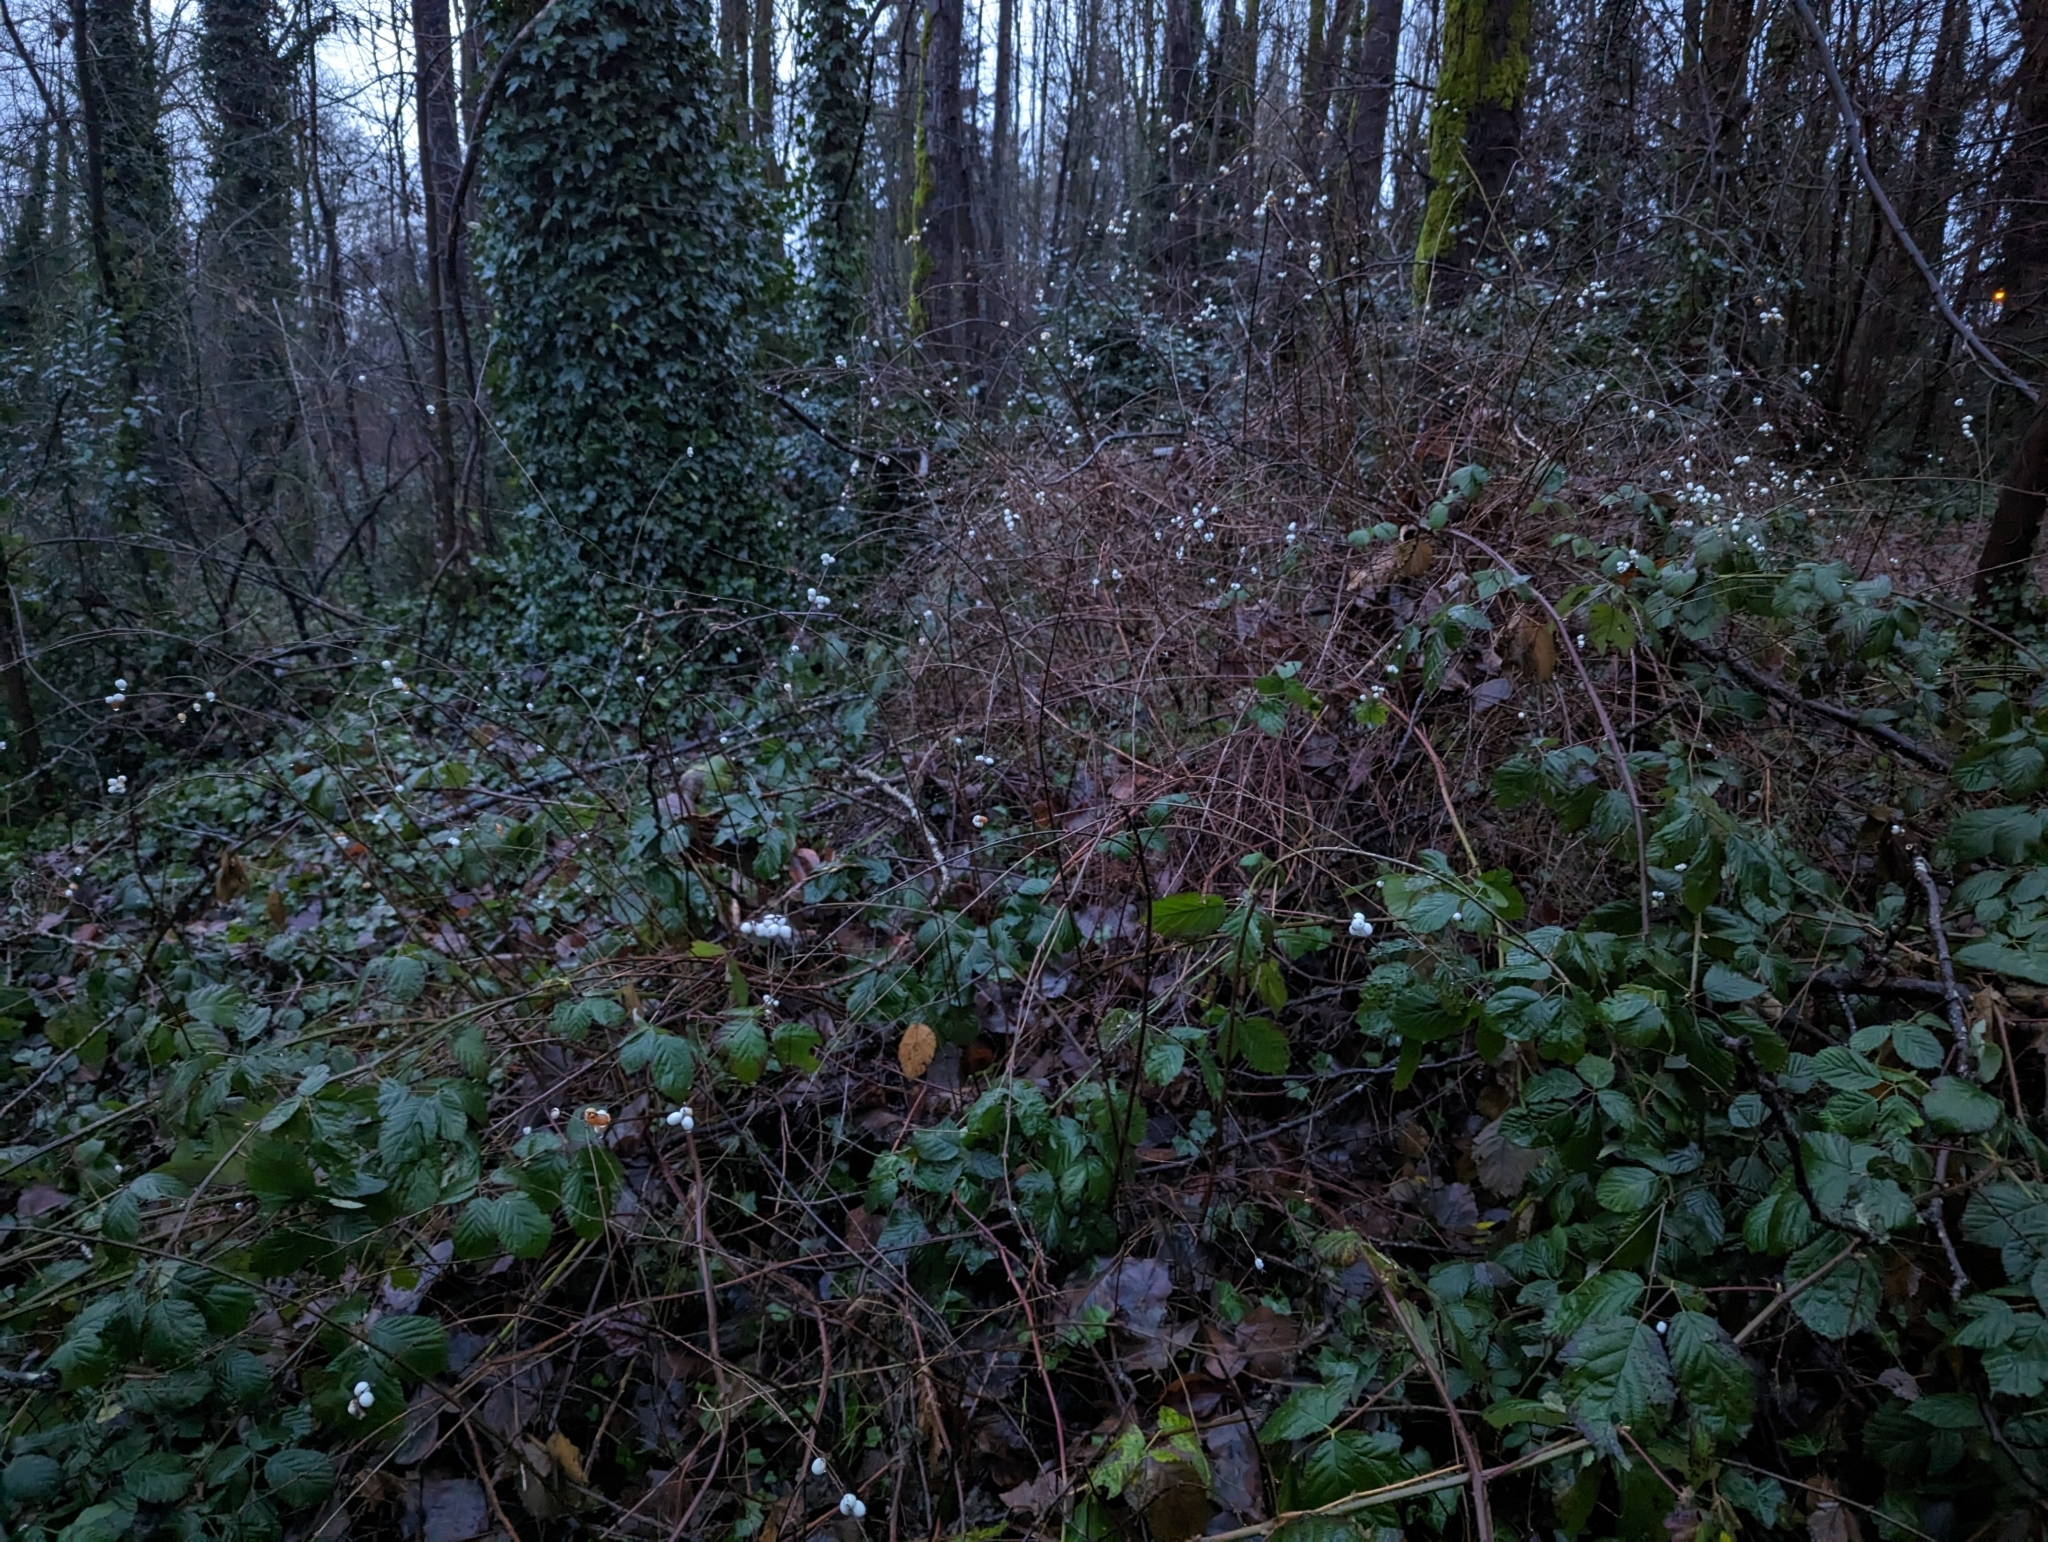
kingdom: Plantae
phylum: Tracheophyta
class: Magnoliopsida
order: Dipsacales
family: Caprifoliaceae
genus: Symphoricarpos
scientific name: Symphoricarpos albus
